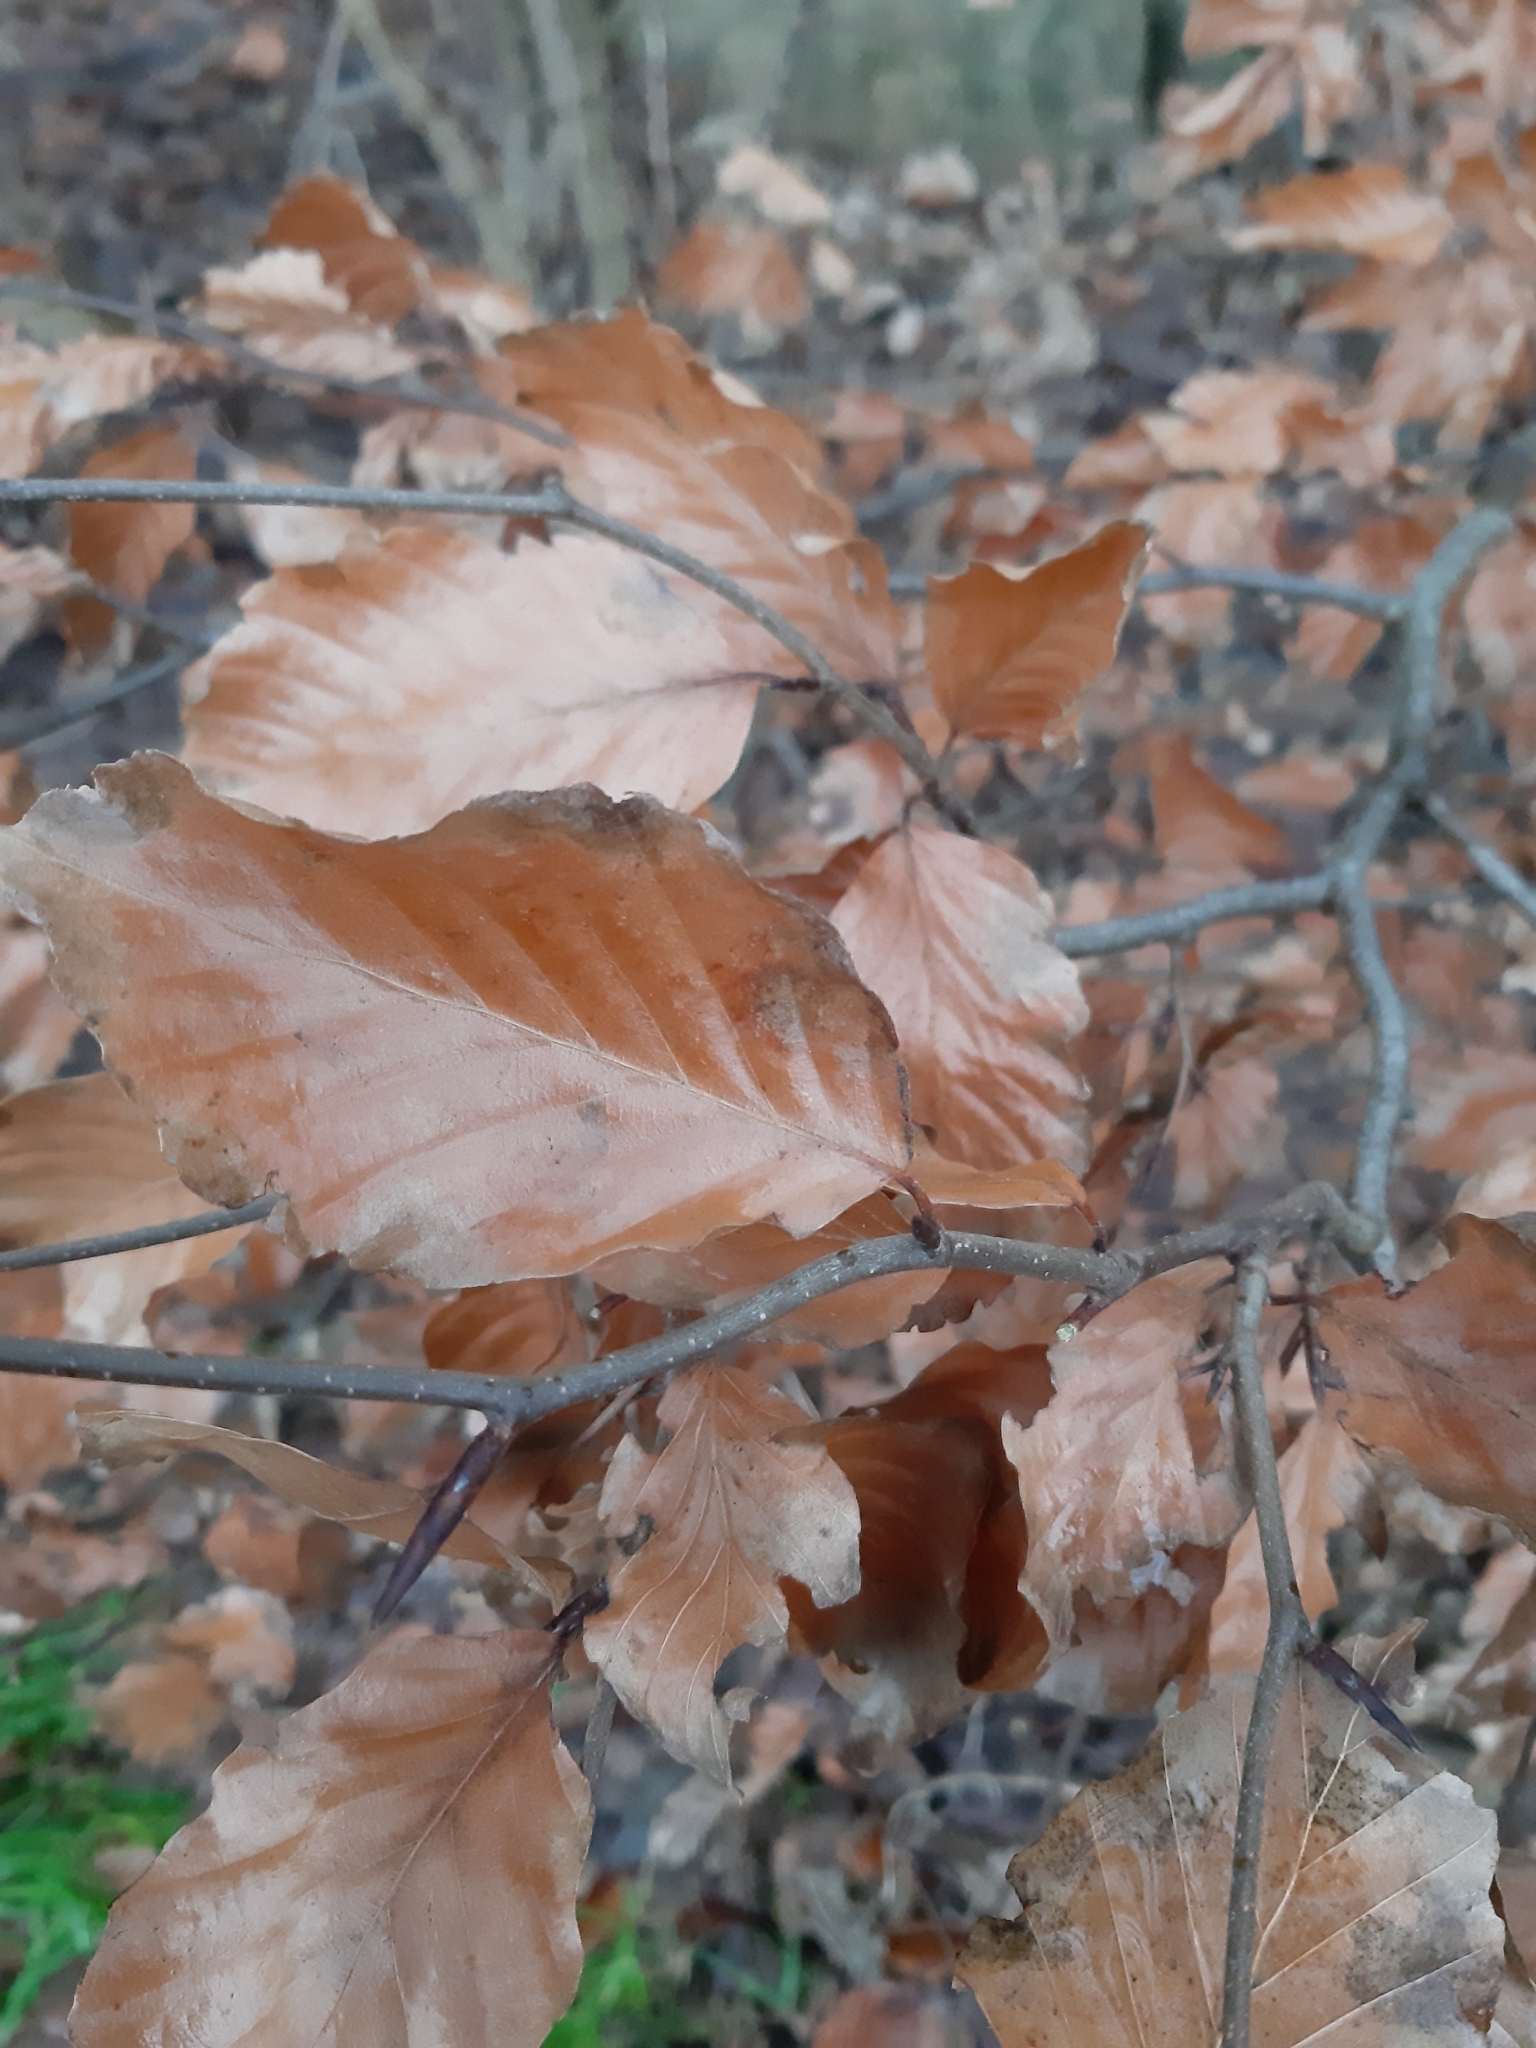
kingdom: Plantae
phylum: Tracheophyta
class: Magnoliopsida
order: Fagales
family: Fagaceae
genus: Fagus
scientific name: Fagus sylvatica
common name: Beech
